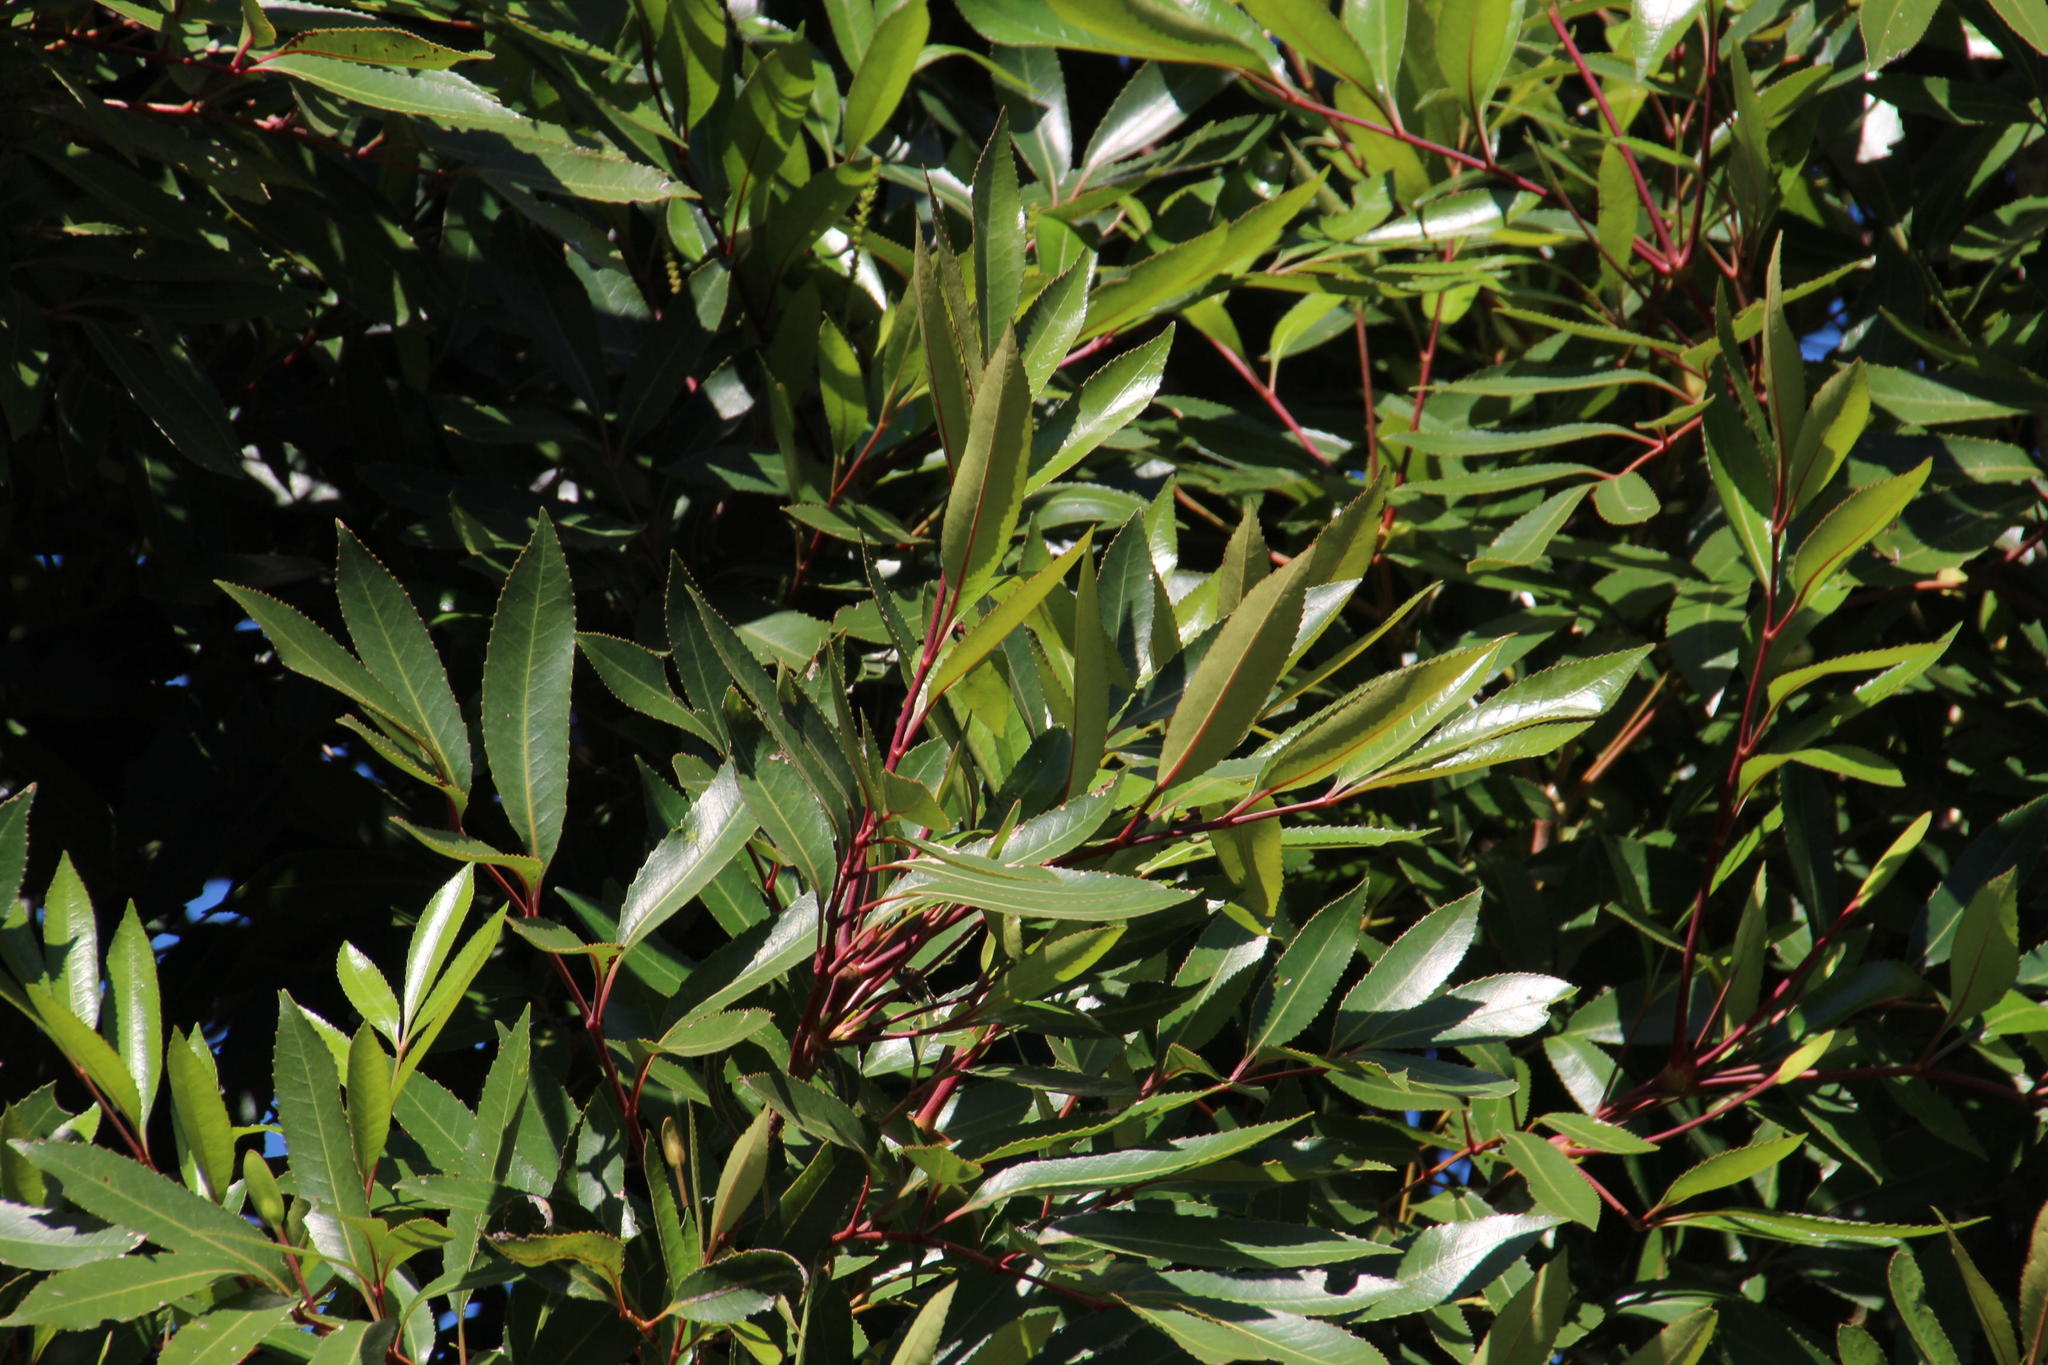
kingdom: Plantae
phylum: Tracheophyta
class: Magnoliopsida
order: Oxalidales
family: Cunoniaceae
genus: Cunonia
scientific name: Cunonia capensis
